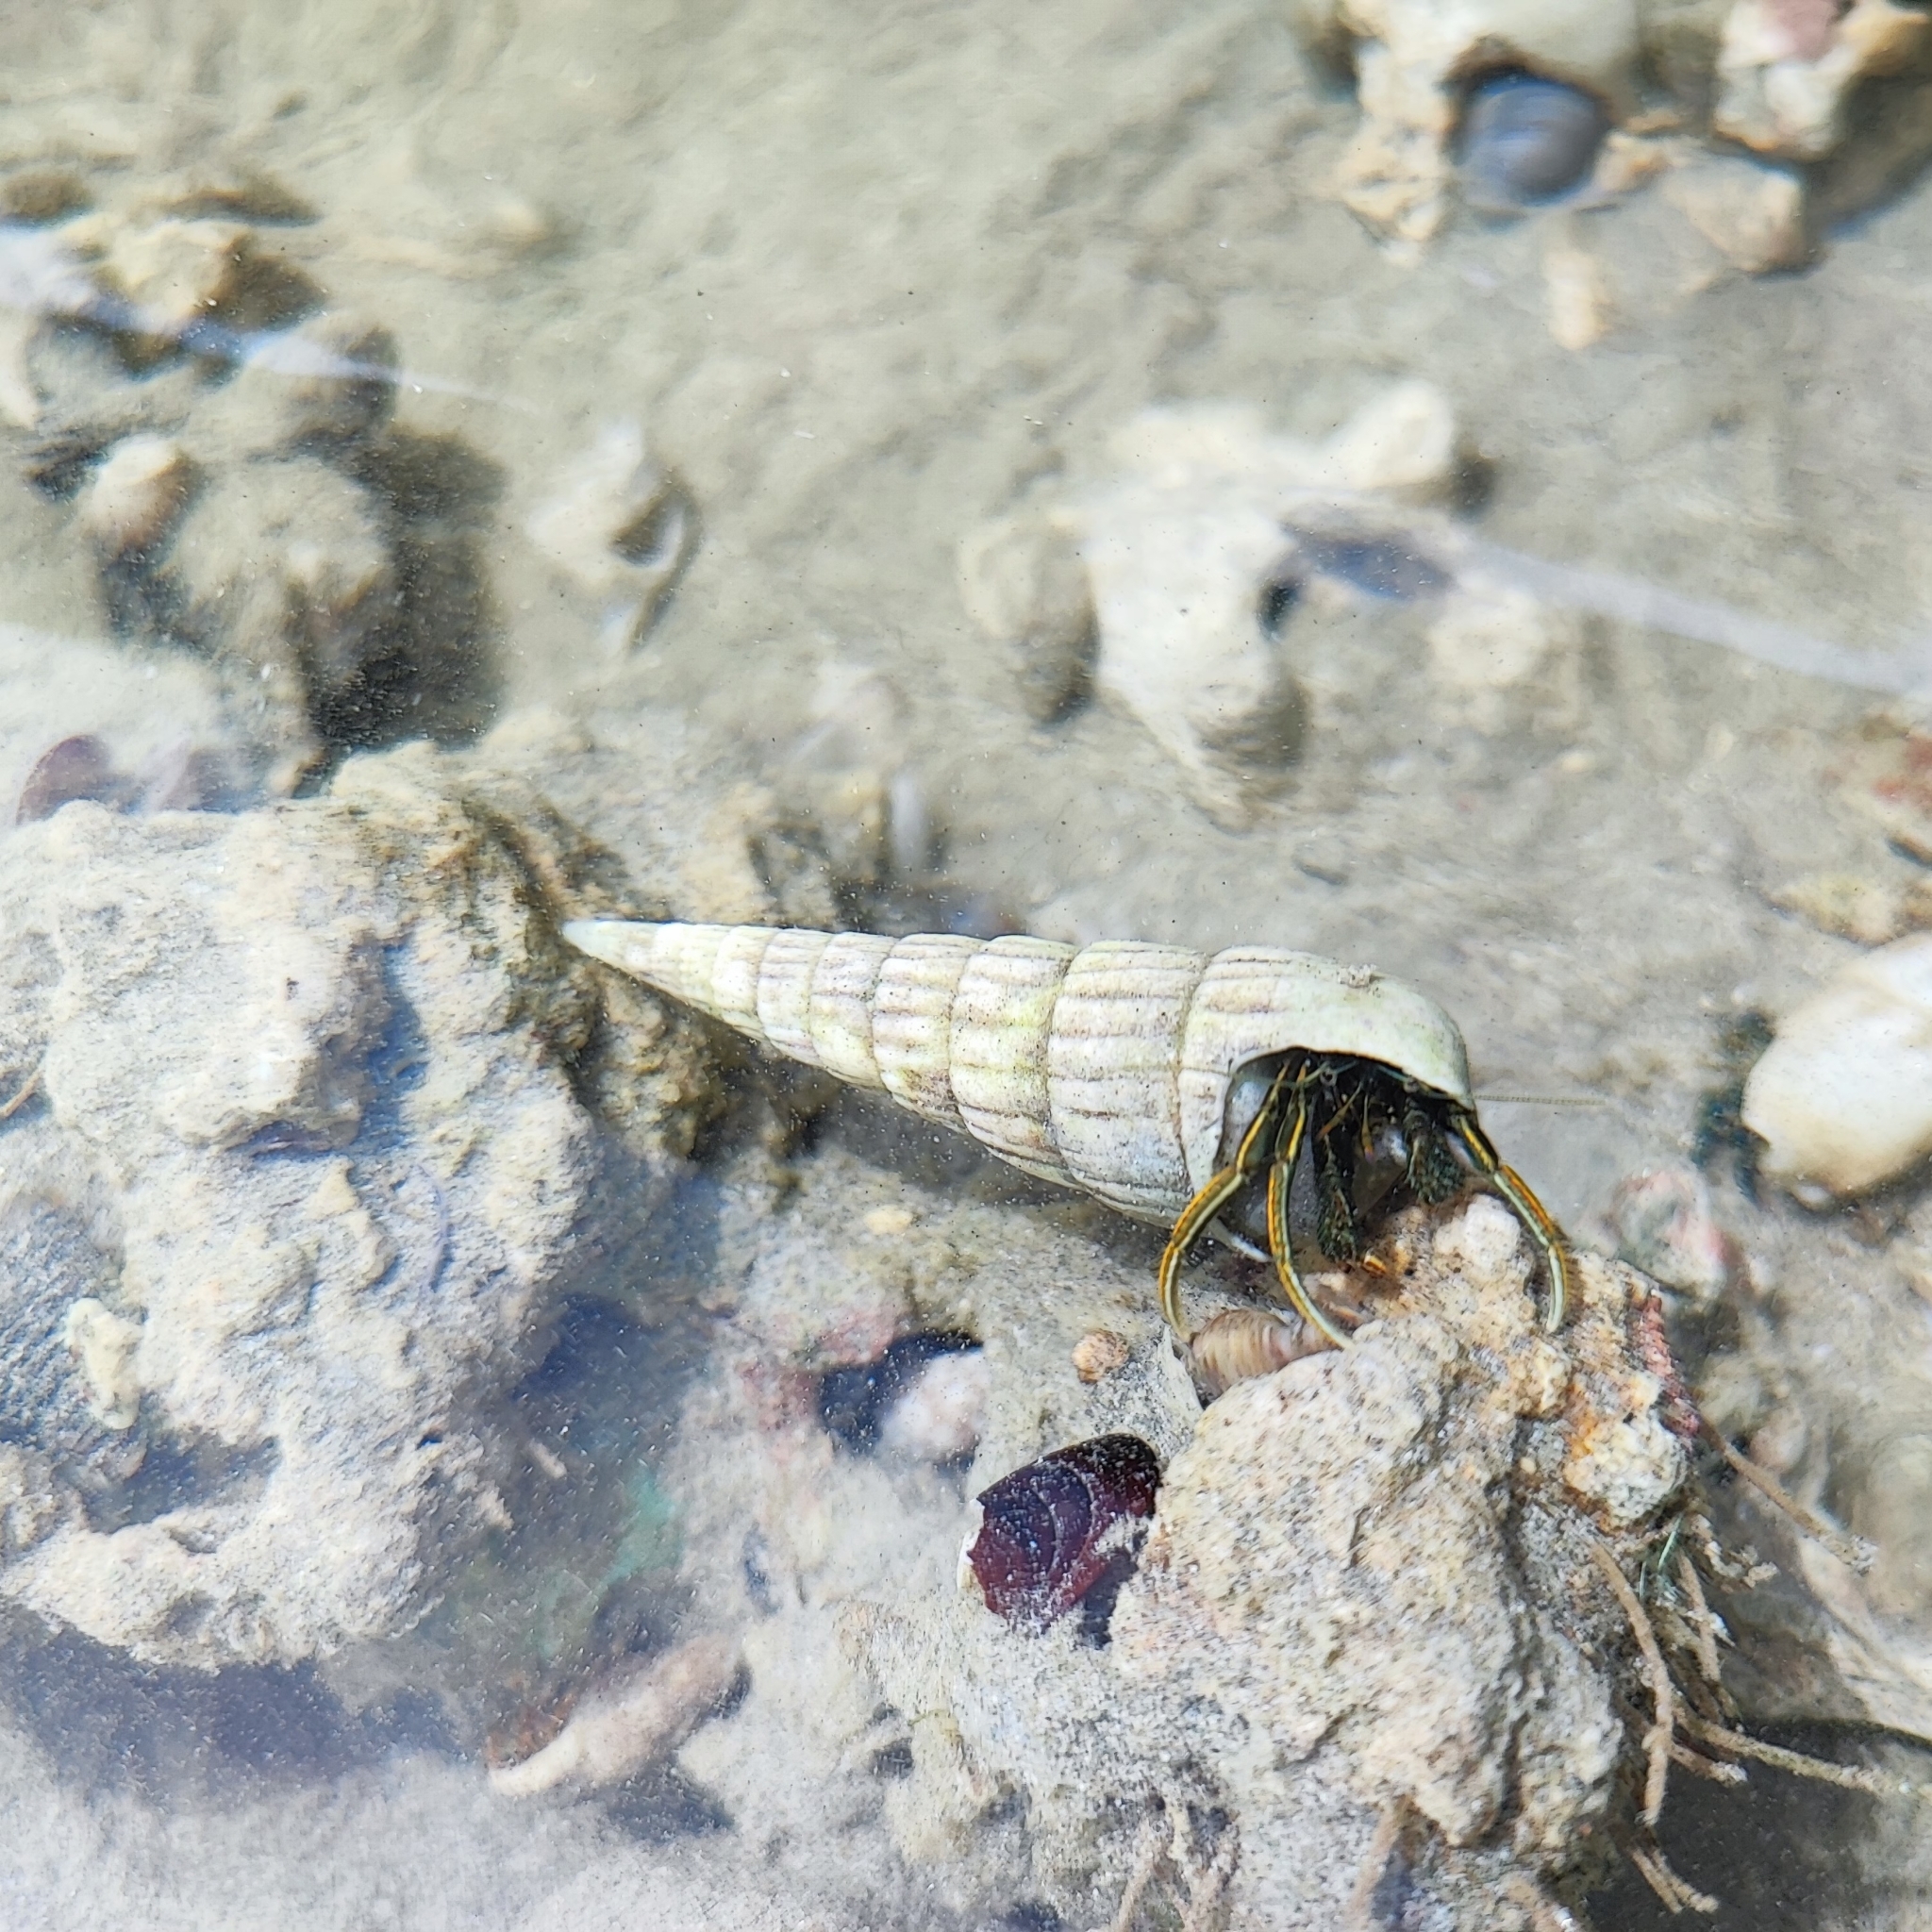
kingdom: Animalia
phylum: Arthropoda
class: Malacostraca
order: Decapoda
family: Diogenidae
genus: Clibanarius
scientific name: Clibanarius infraspinatus
